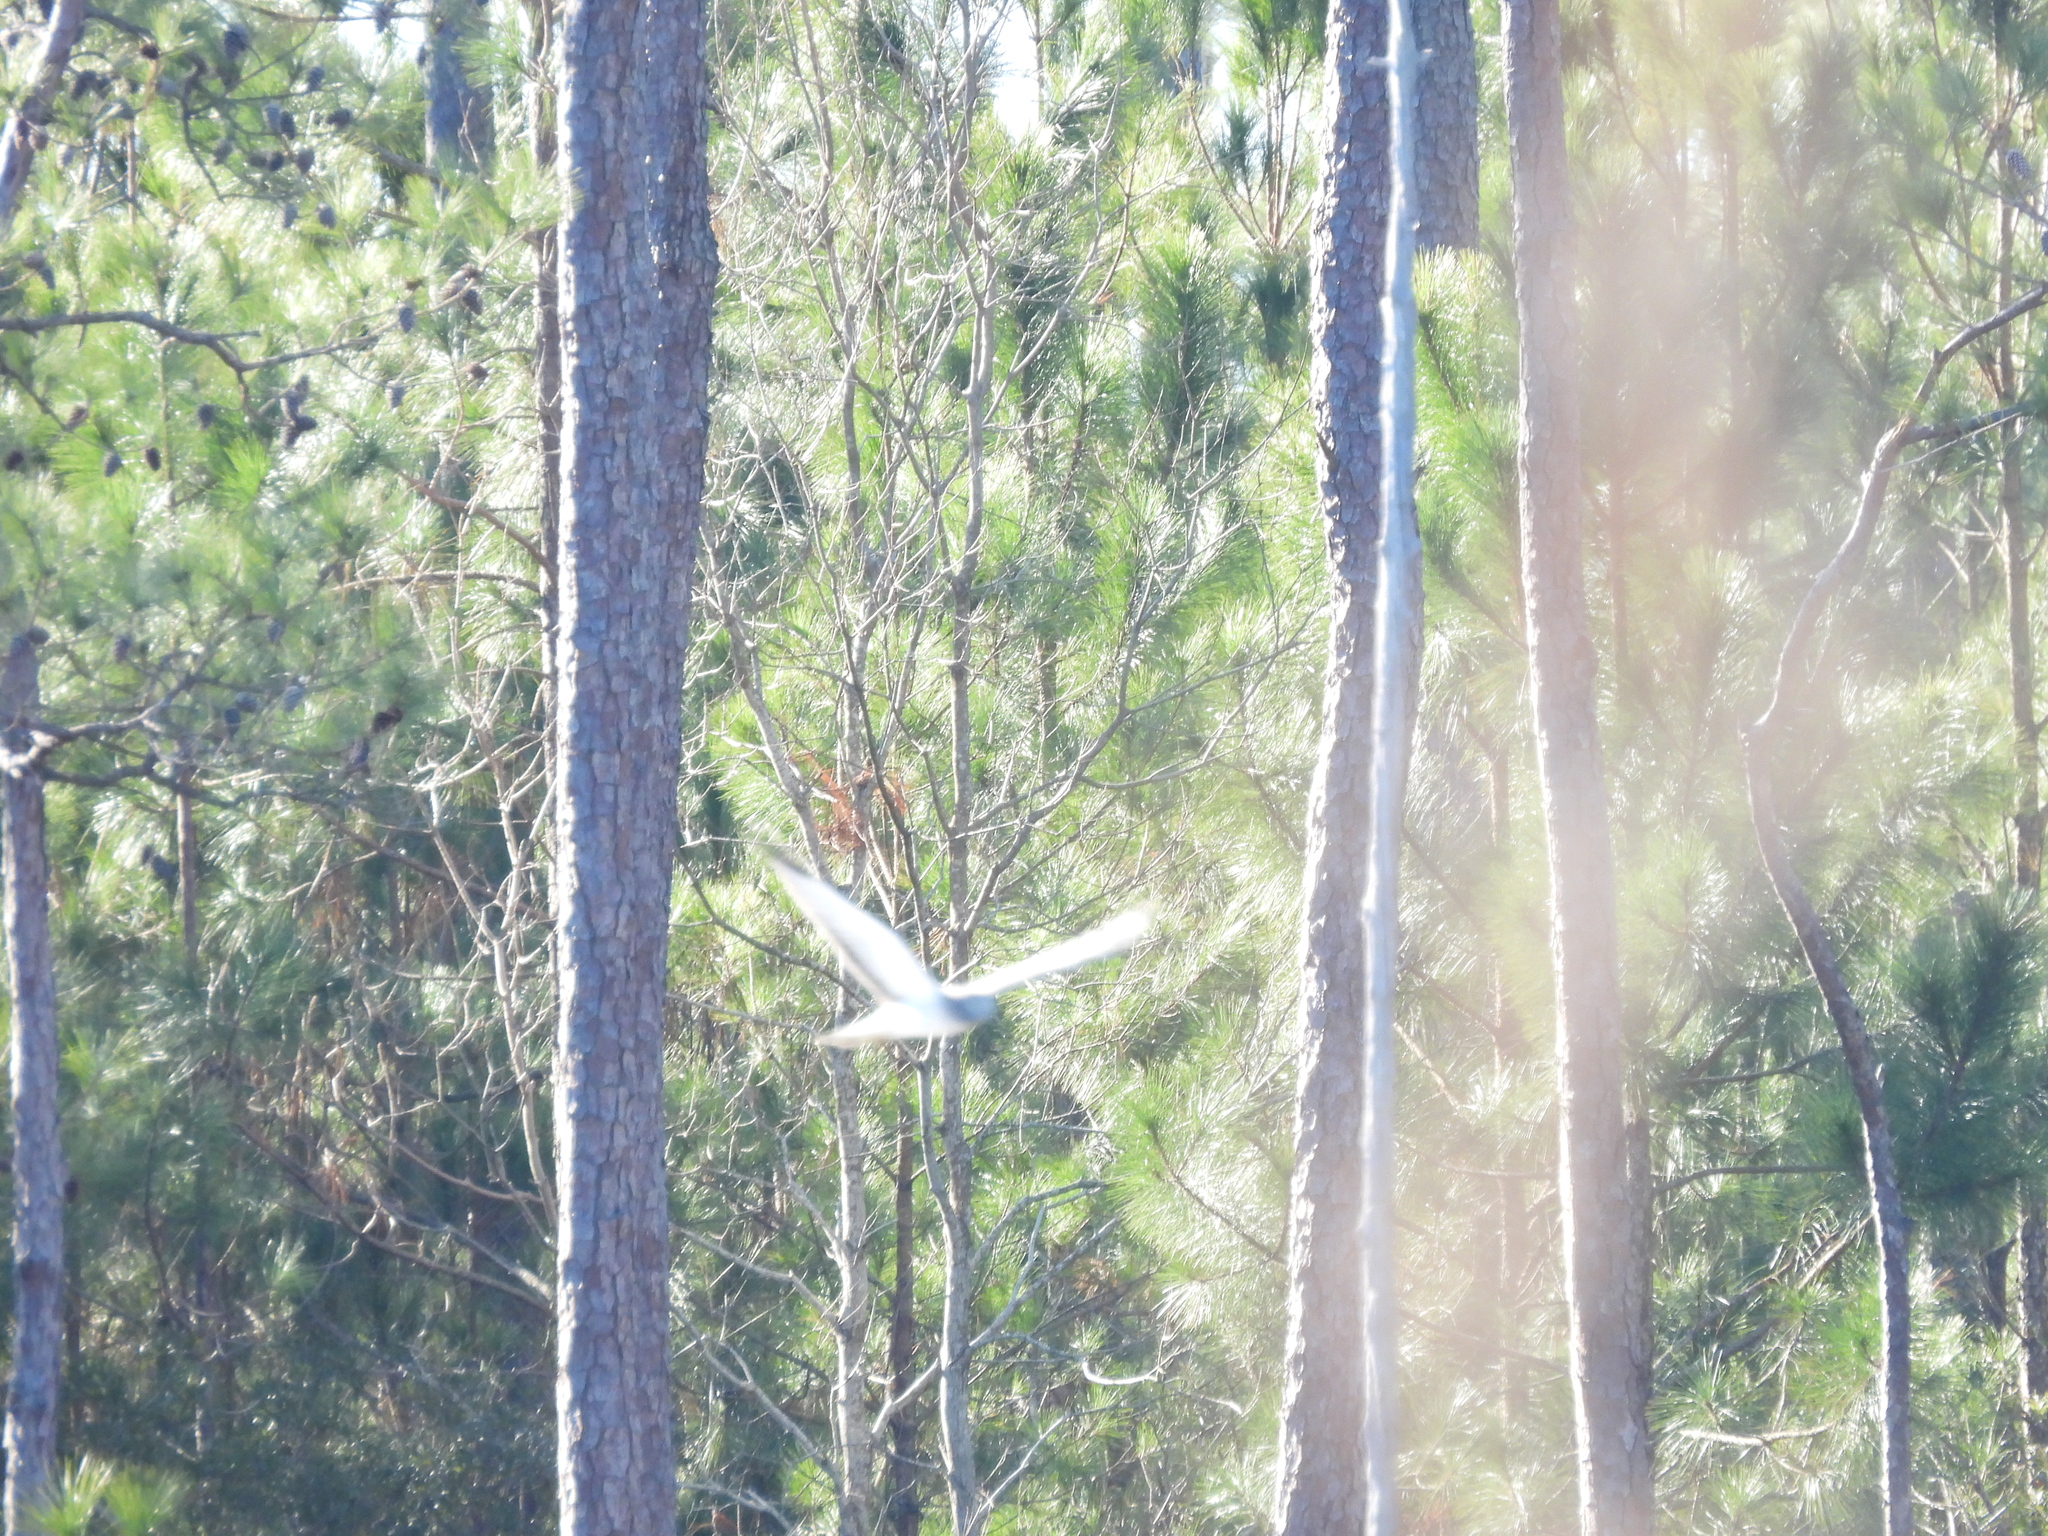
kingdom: Animalia
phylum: Chordata
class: Aves
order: Accipitriformes
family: Accipitridae
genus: Circus
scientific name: Circus cyaneus
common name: Hen harrier
